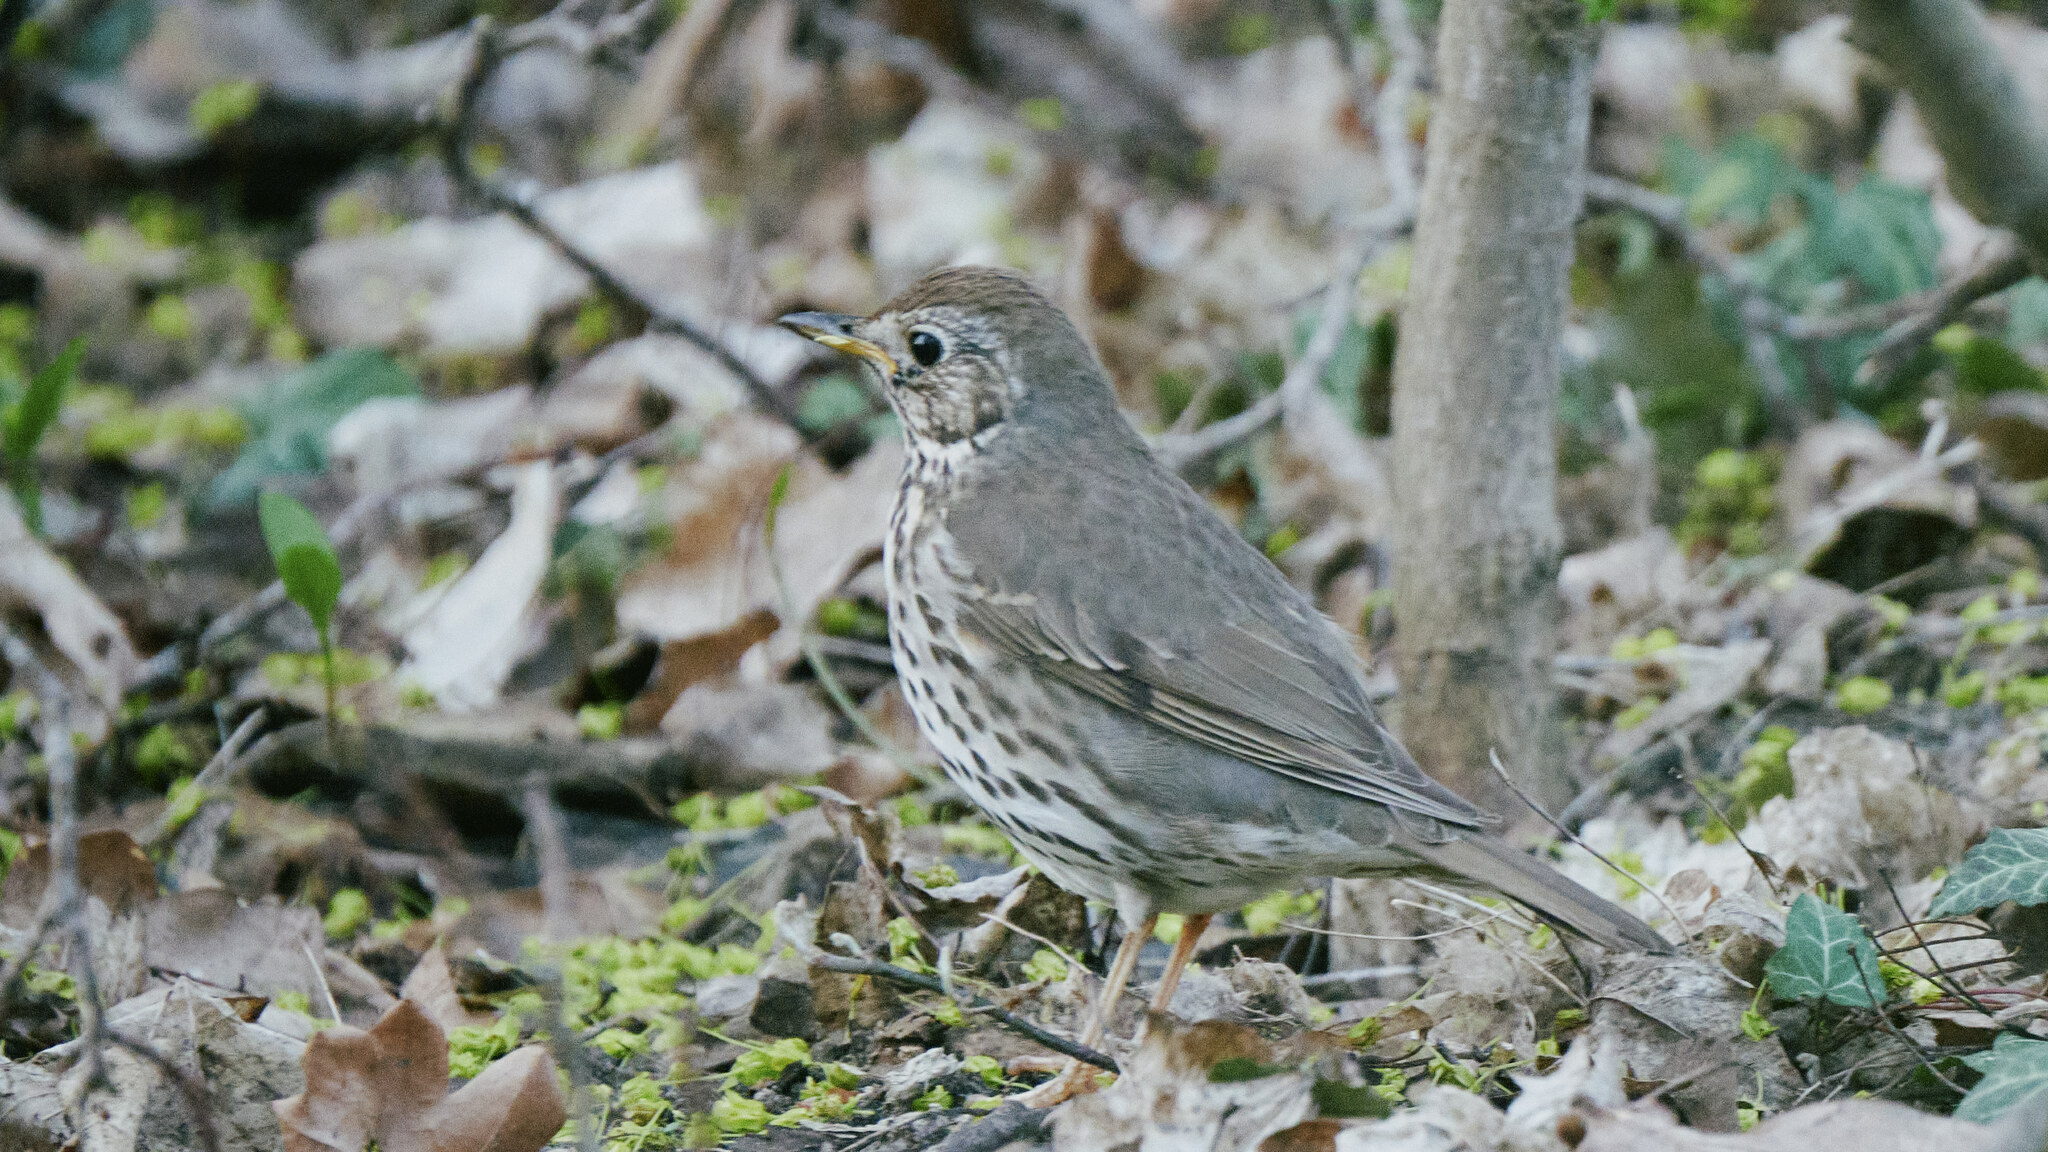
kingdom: Animalia
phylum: Chordata
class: Aves
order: Passeriformes
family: Turdidae
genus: Turdus
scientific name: Turdus philomelos
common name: Song thrush
